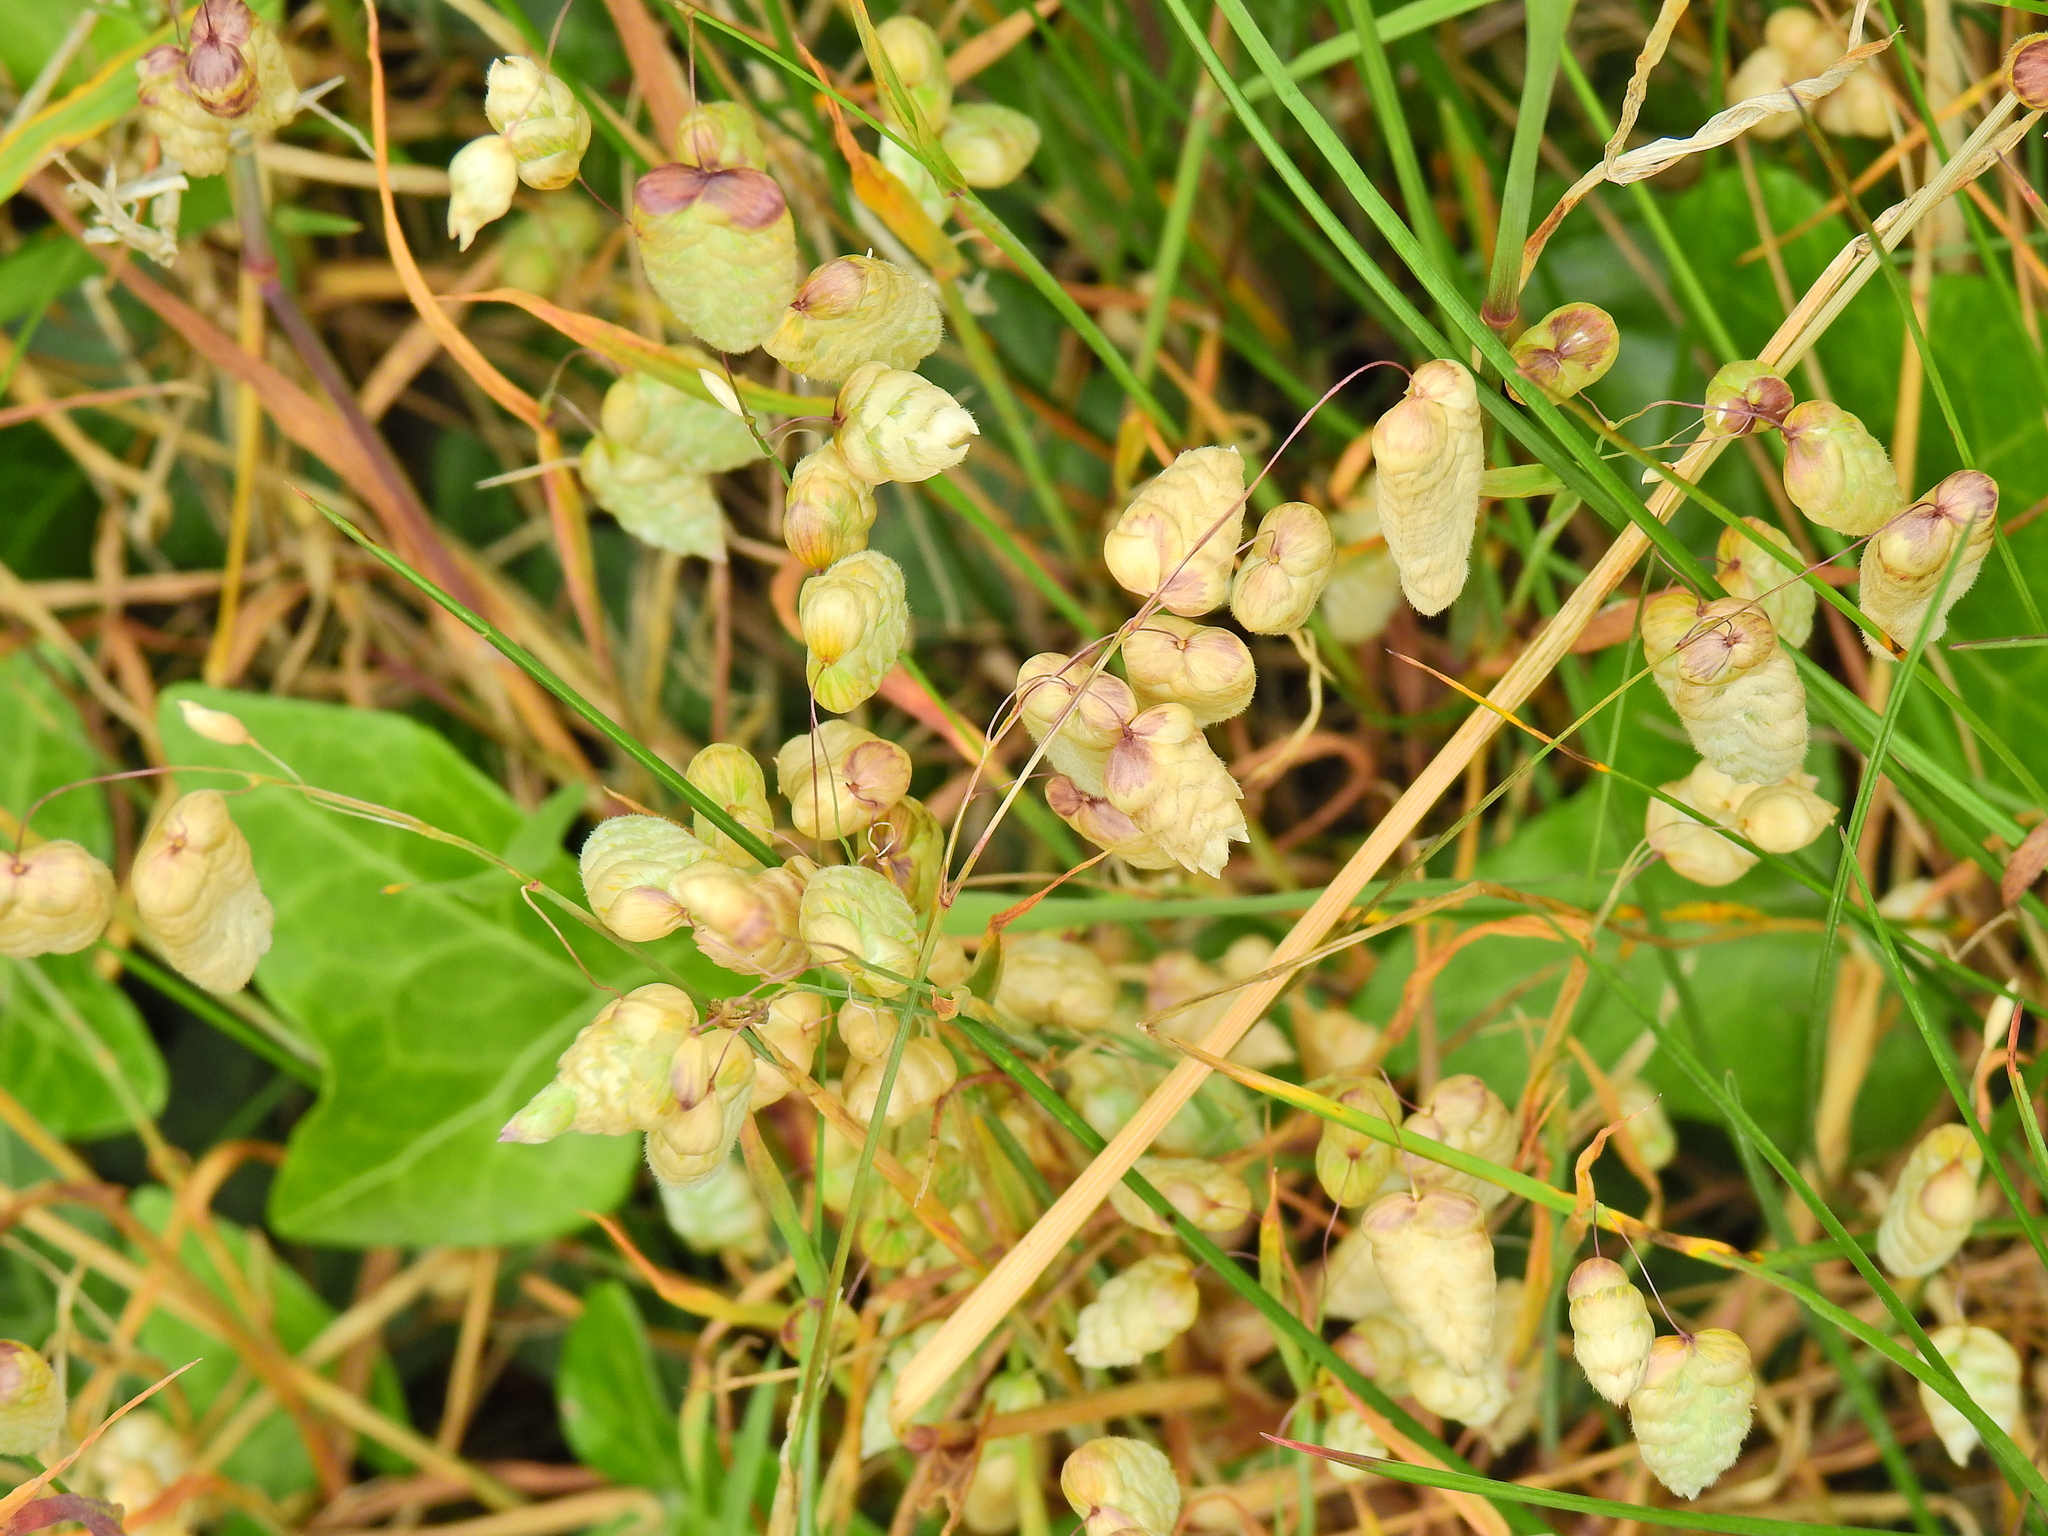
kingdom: Plantae
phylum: Tracheophyta
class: Liliopsida
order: Poales
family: Poaceae
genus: Briza
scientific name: Briza maxima
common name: Big quakinggrass
